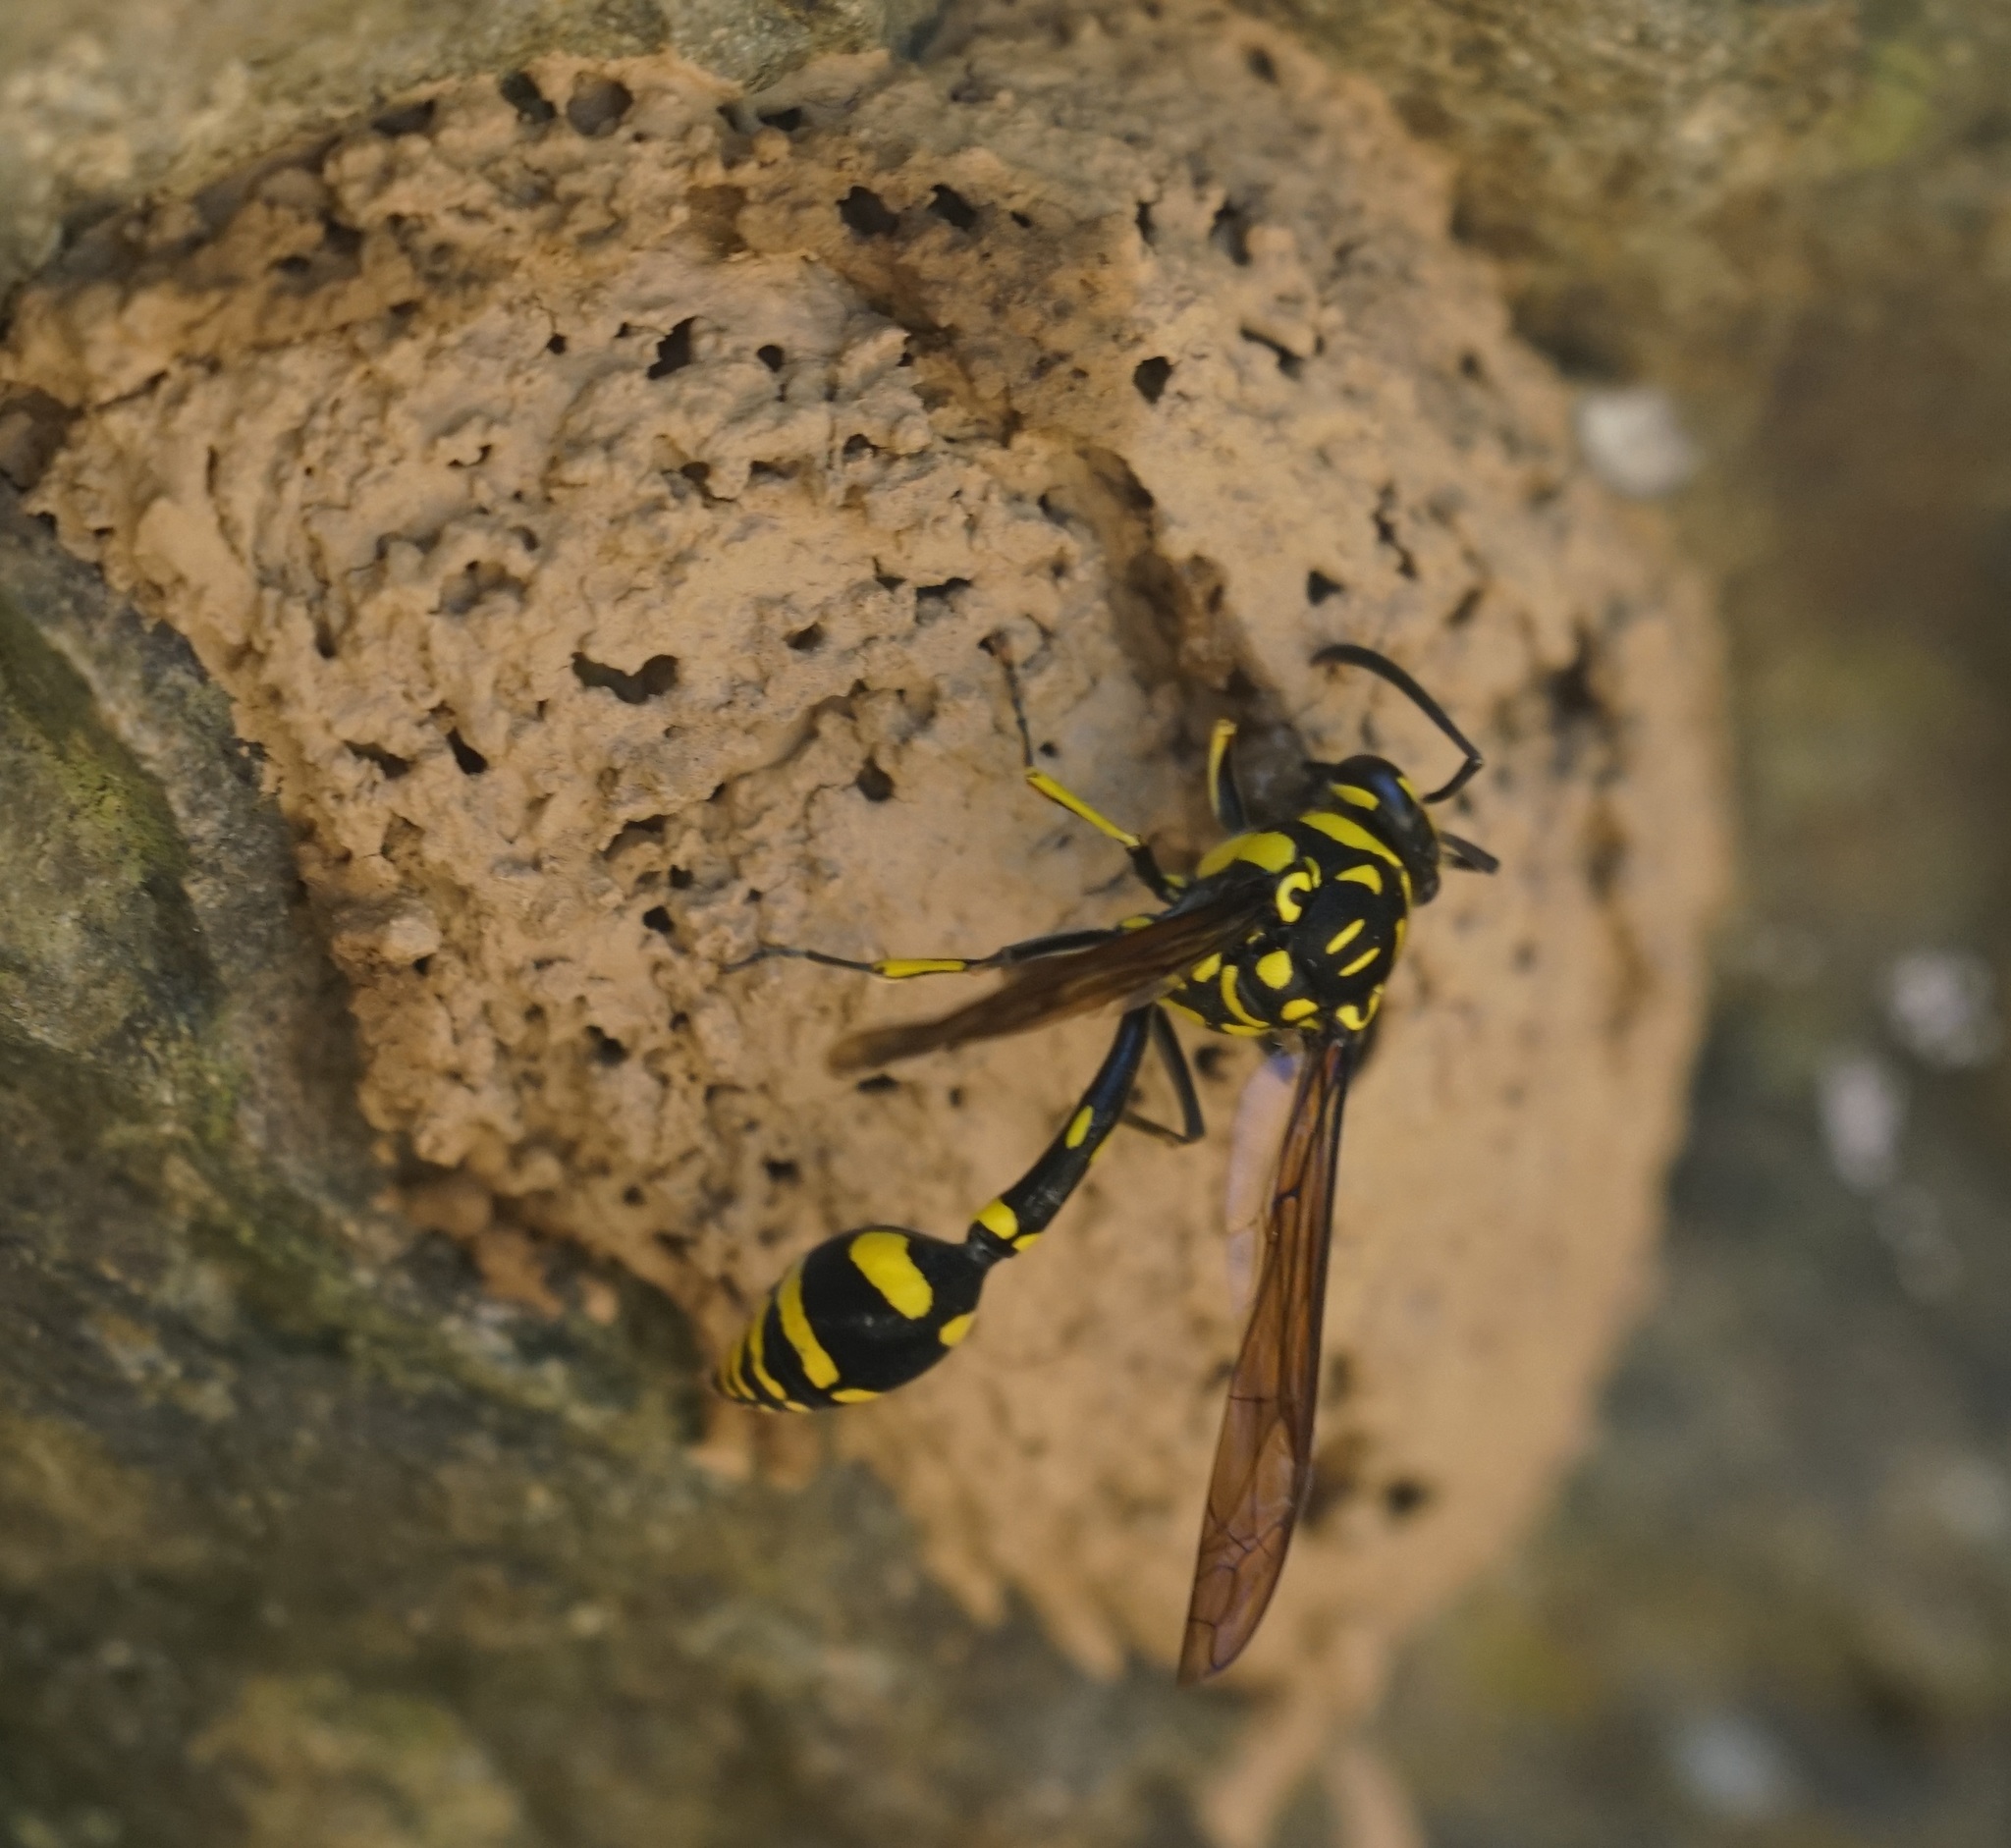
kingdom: Animalia
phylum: Arthropoda
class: Insecta
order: Hymenoptera
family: Eumenidae
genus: Phimenes
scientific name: Phimenes arcuatus
